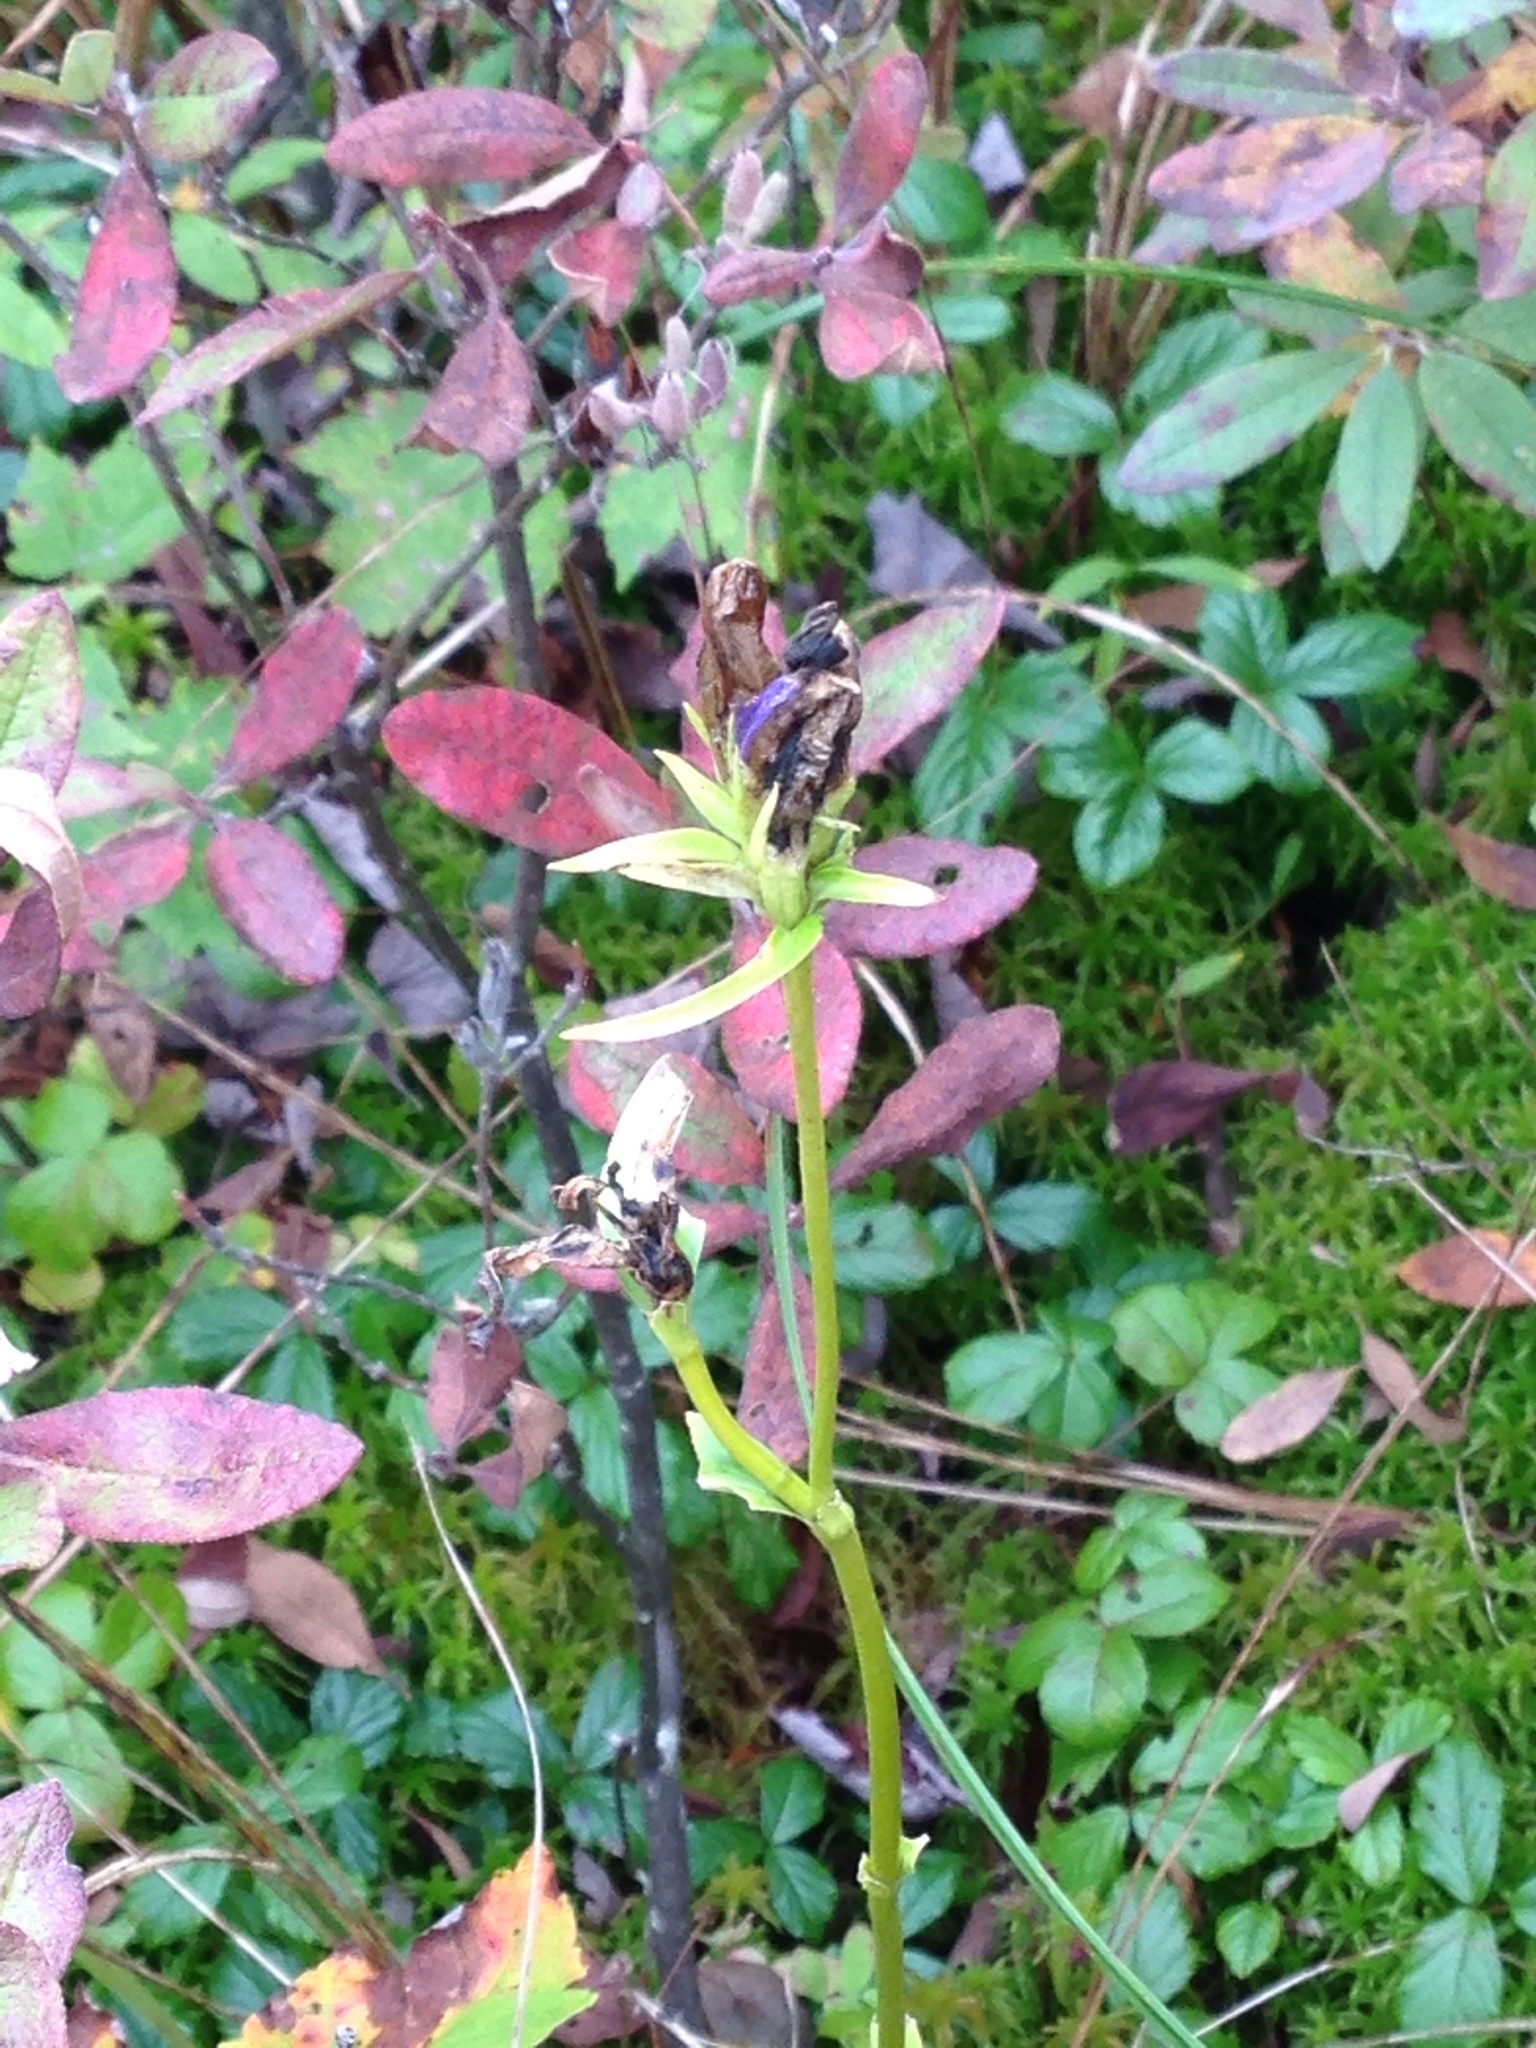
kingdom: Plantae
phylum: Tracheophyta
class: Magnoliopsida
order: Gentianales
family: Gentianaceae
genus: Gentiana
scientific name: Gentiana linearis
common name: Bastard gentian
